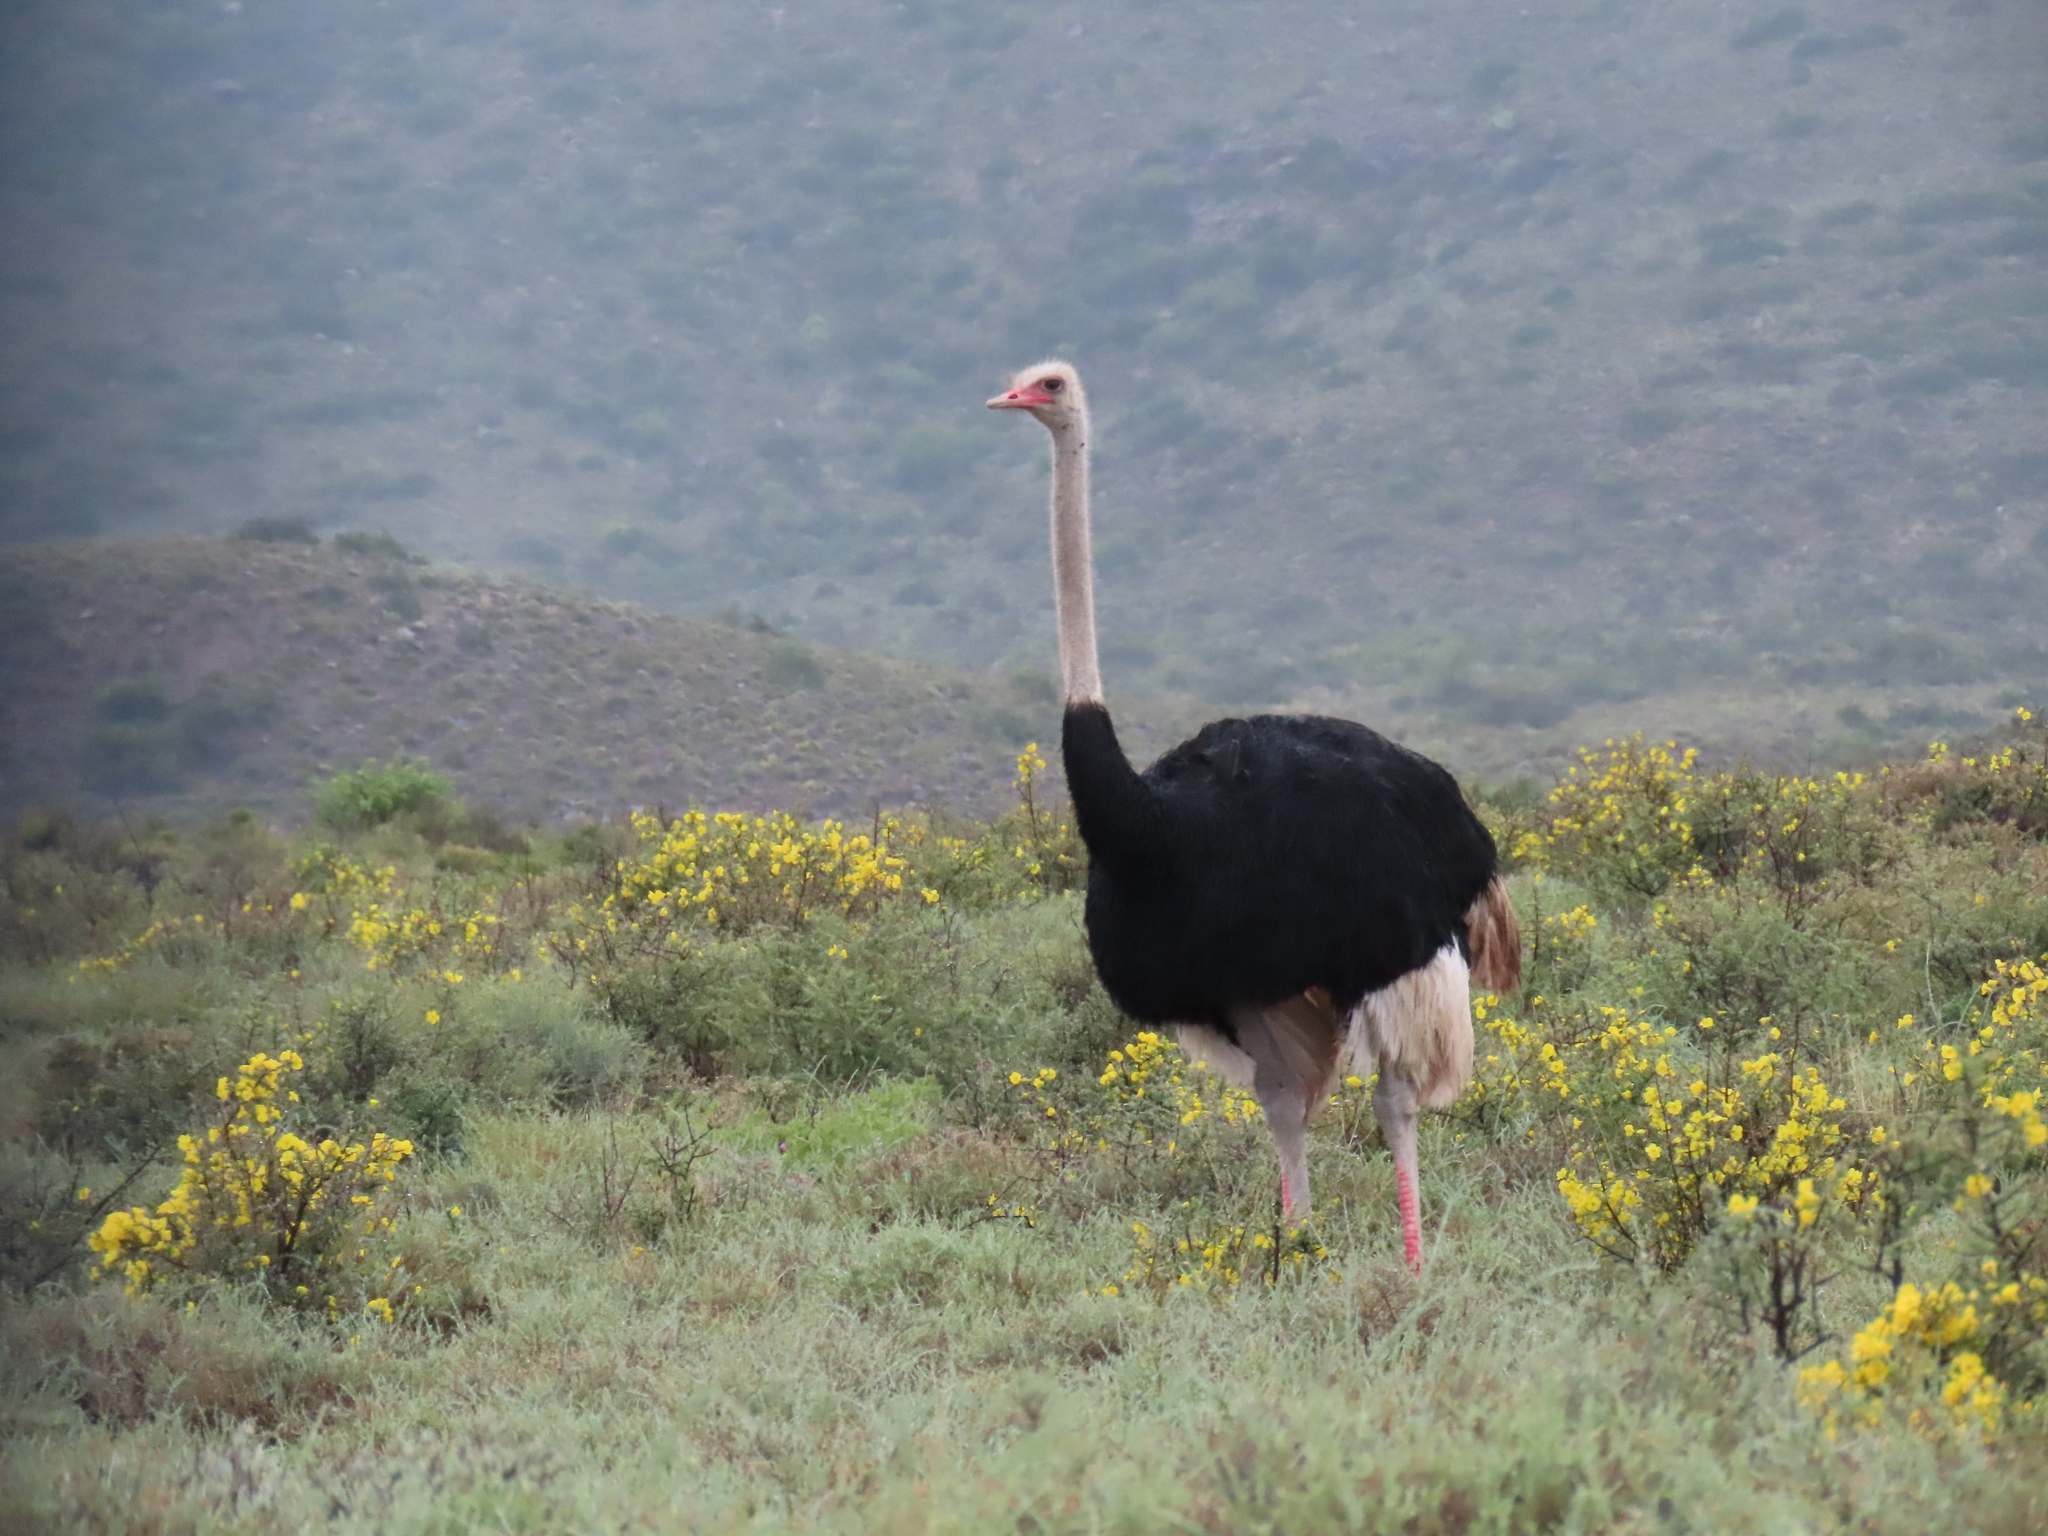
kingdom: Animalia
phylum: Chordata
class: Aves
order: Struthioniformes
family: Struthionidae
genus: Struthio
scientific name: Struthio camelus
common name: Common ostrich
